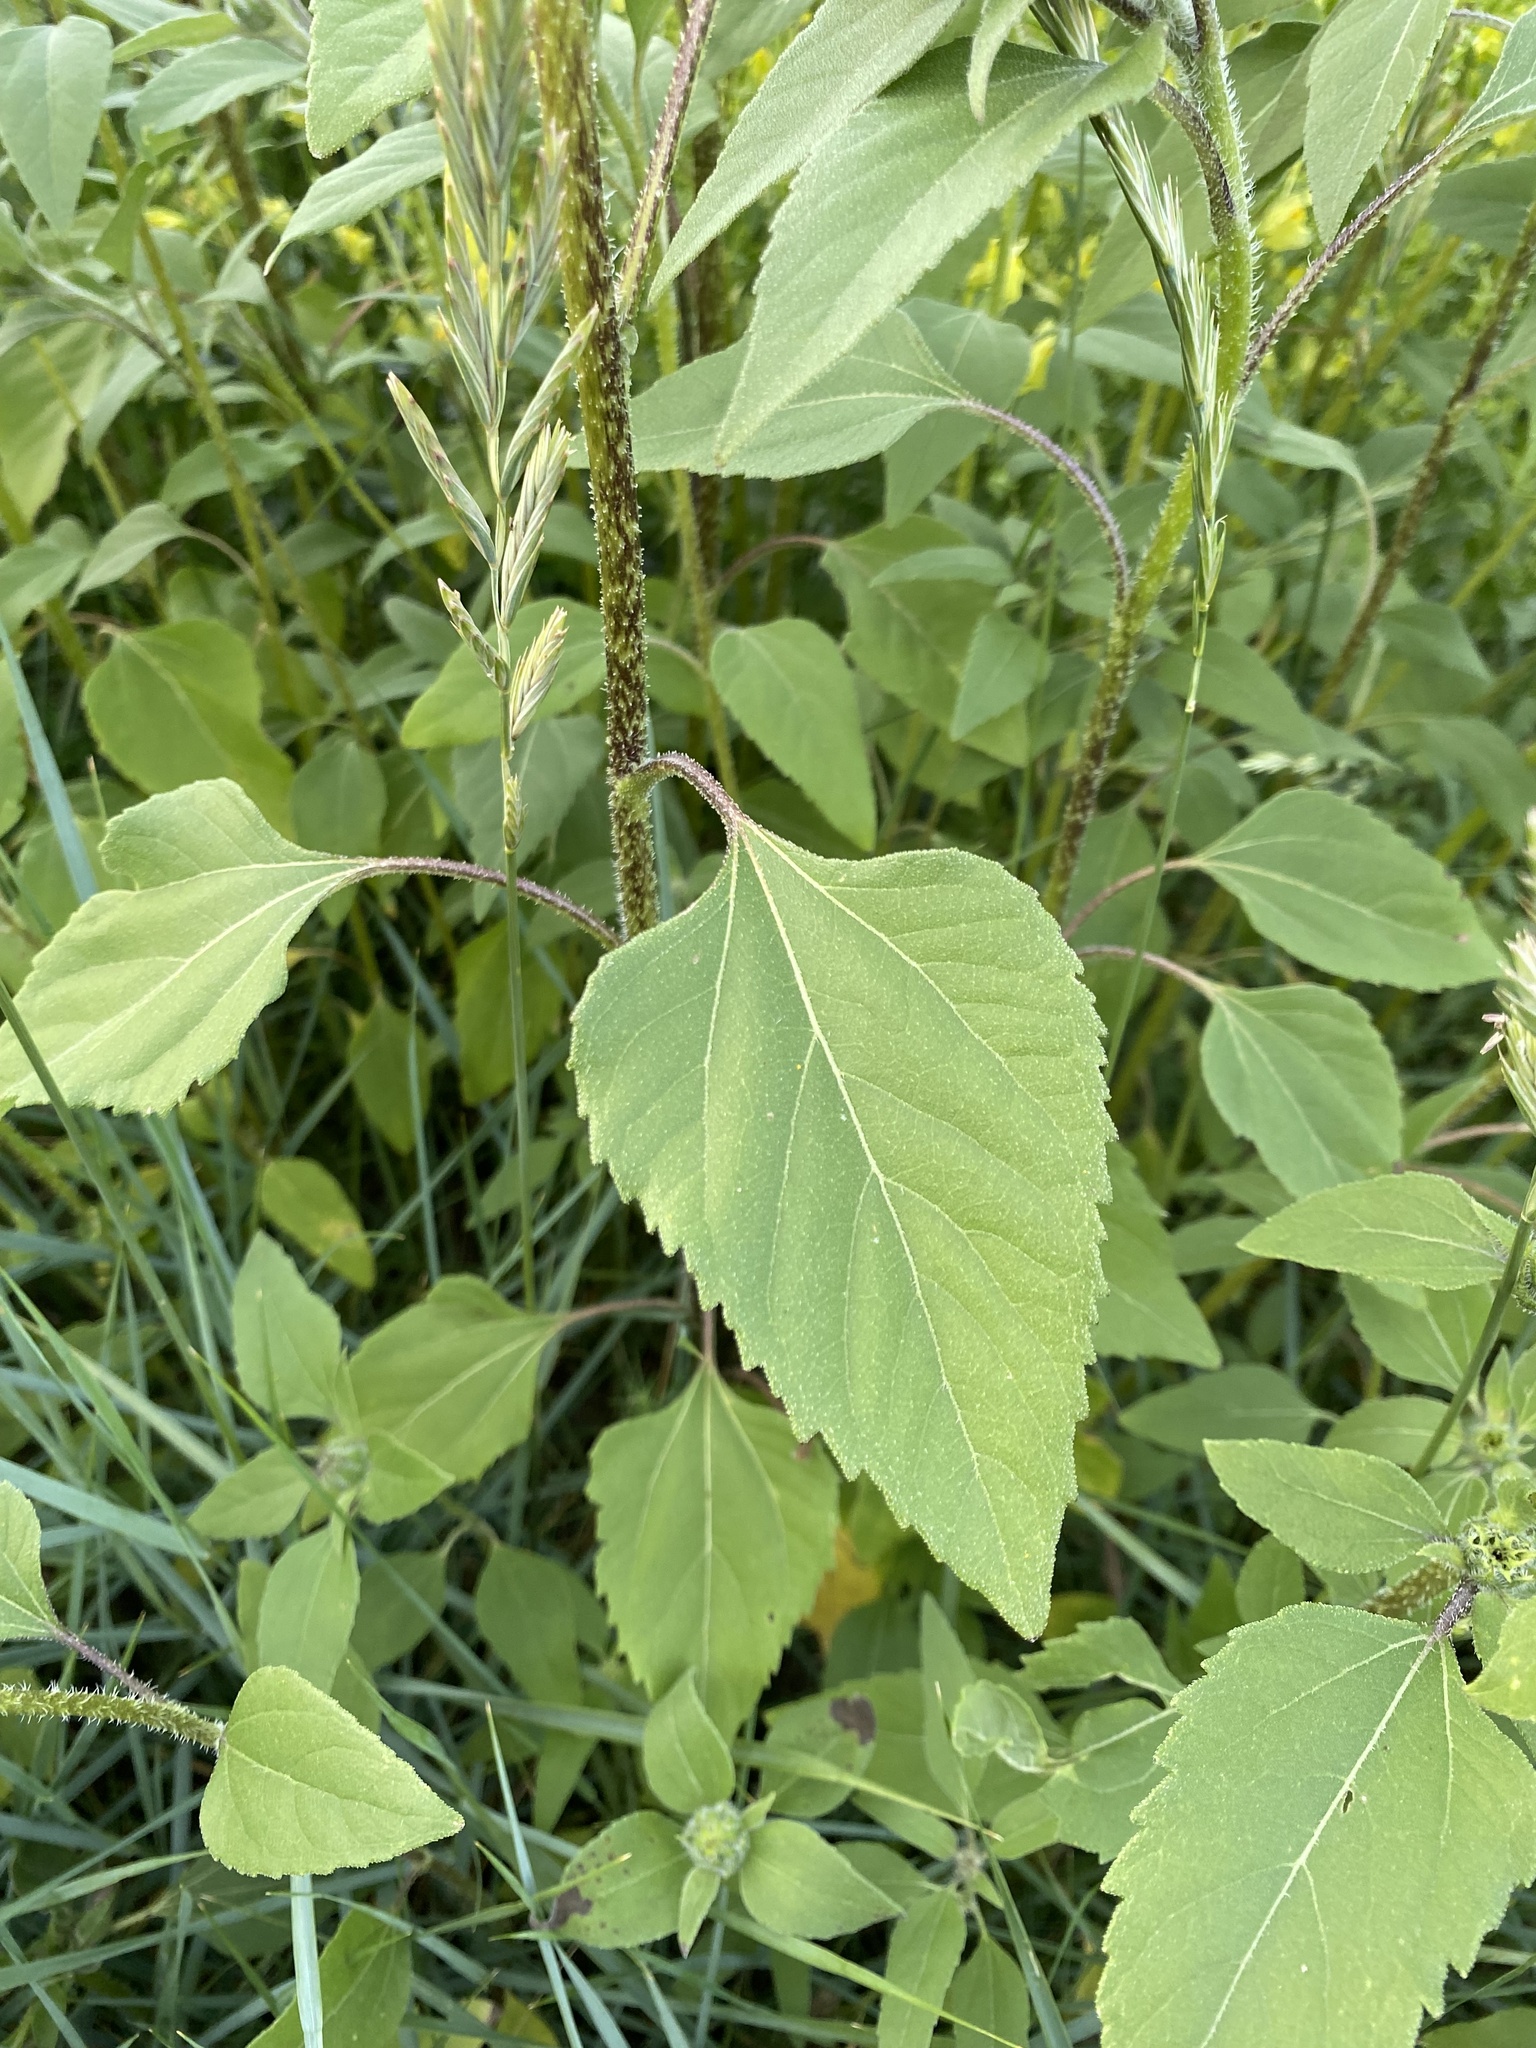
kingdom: Plantae
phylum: Tracheophyta
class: Magnoliopsida
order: Asterales
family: Asteraceae
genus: Helianthus
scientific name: Helianthus annuus
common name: Sunflower
